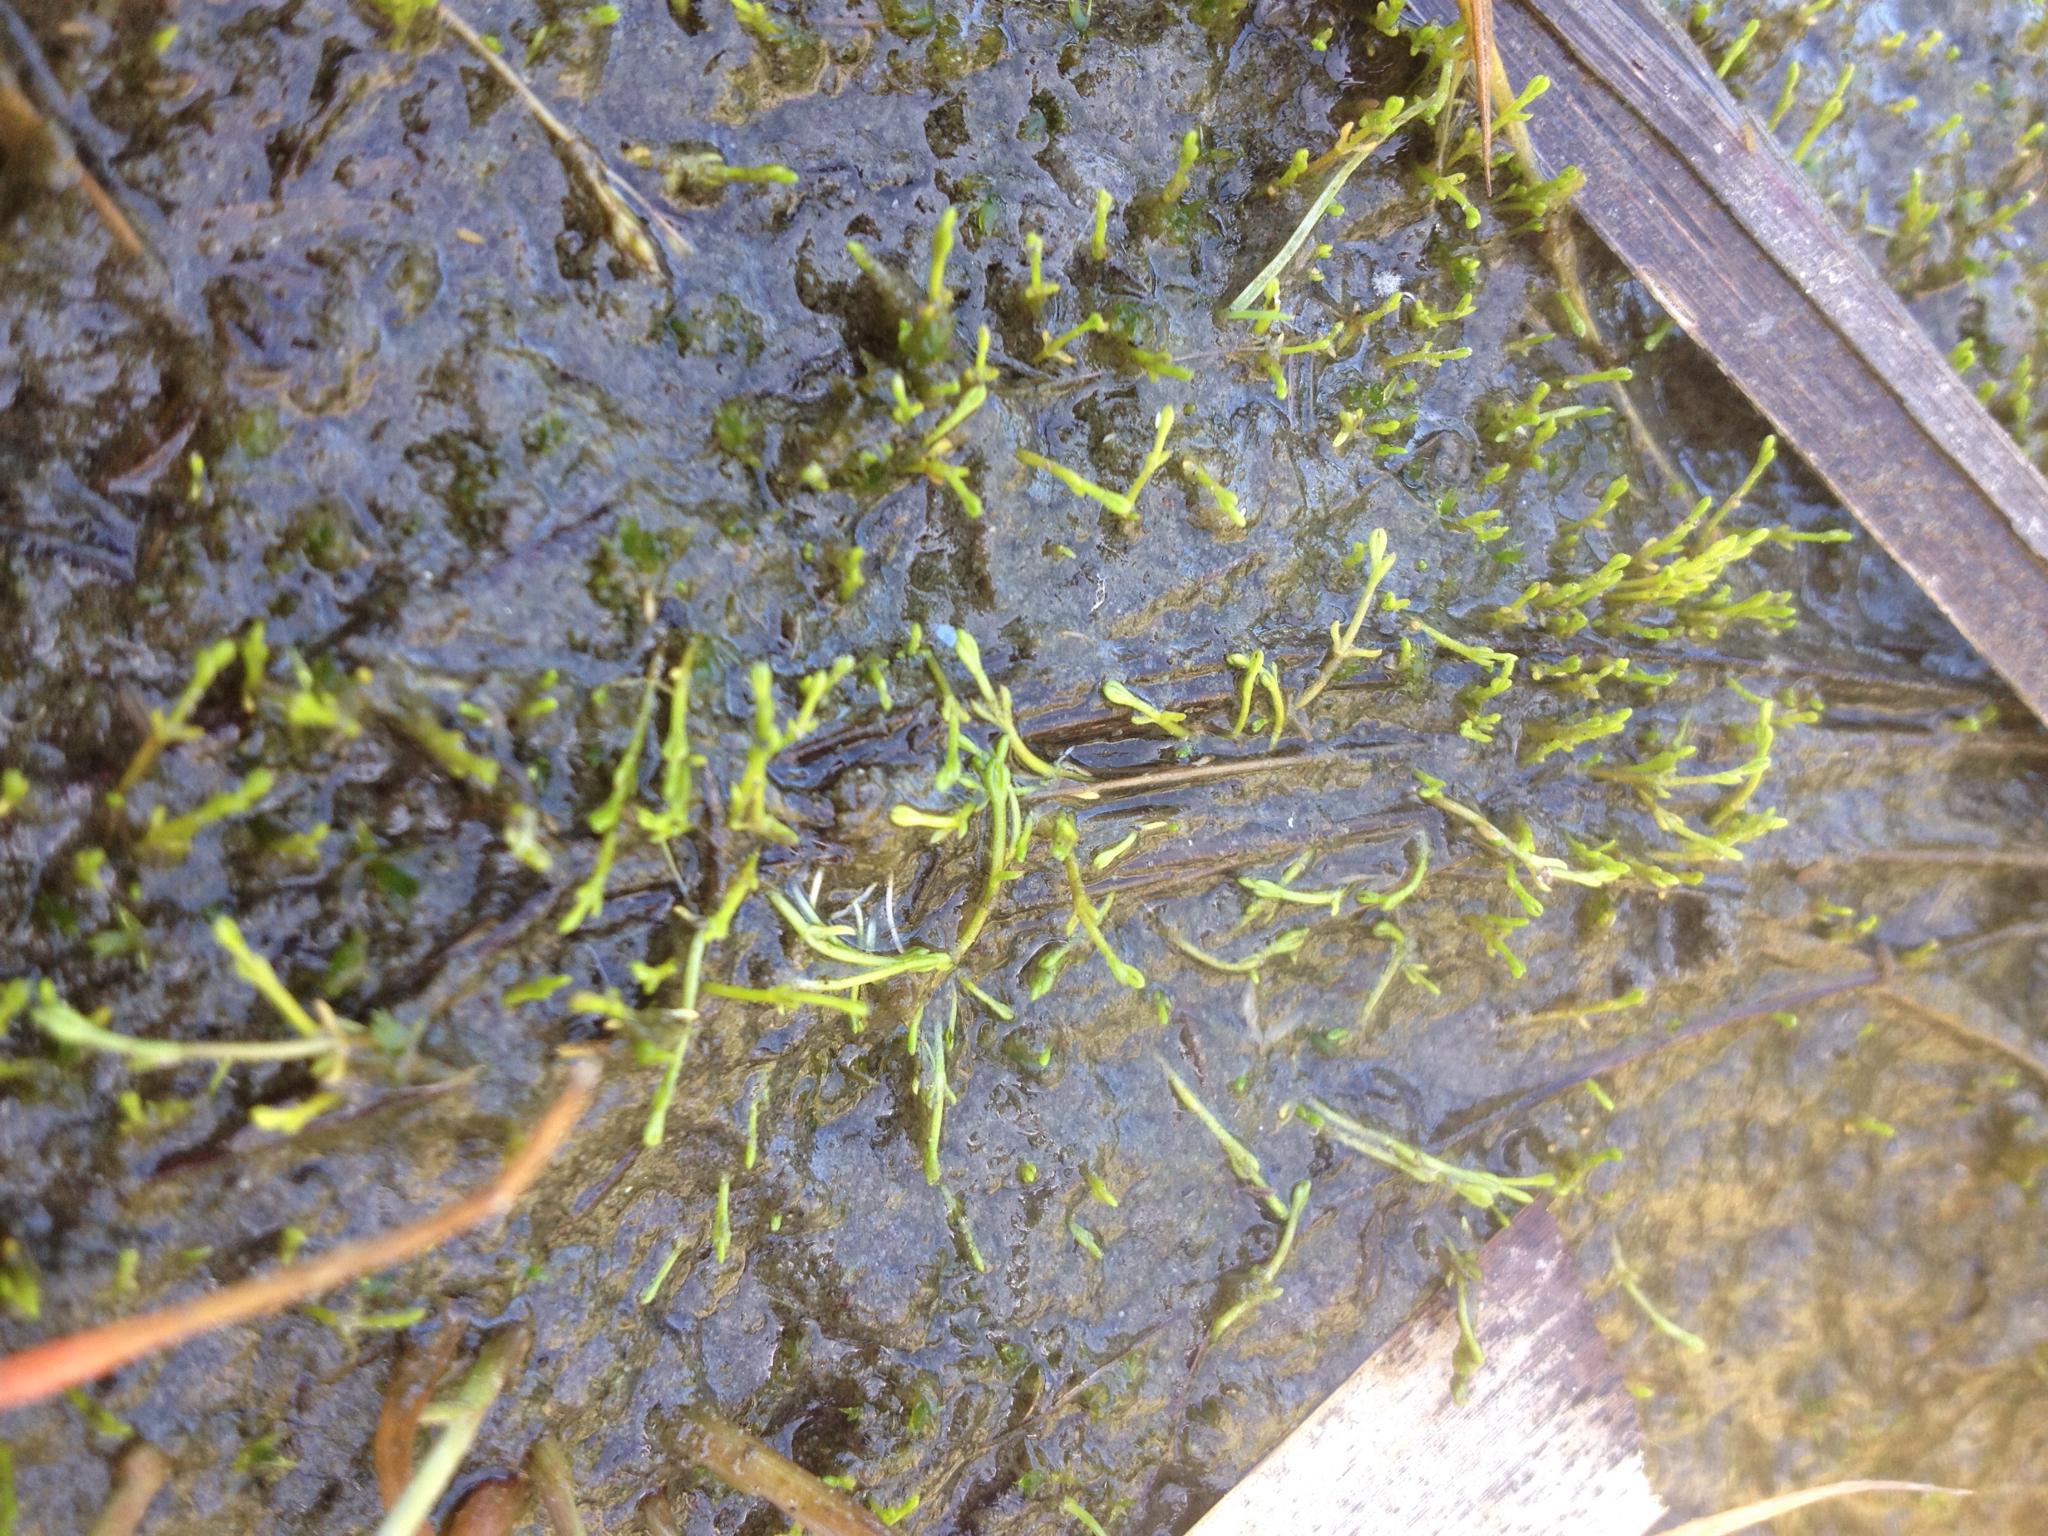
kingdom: Plantae
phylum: Tracheophyta
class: Magnoliopsida
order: Saxifragales
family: Crassulaceae
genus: Crassula
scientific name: Crassula sinclairii
